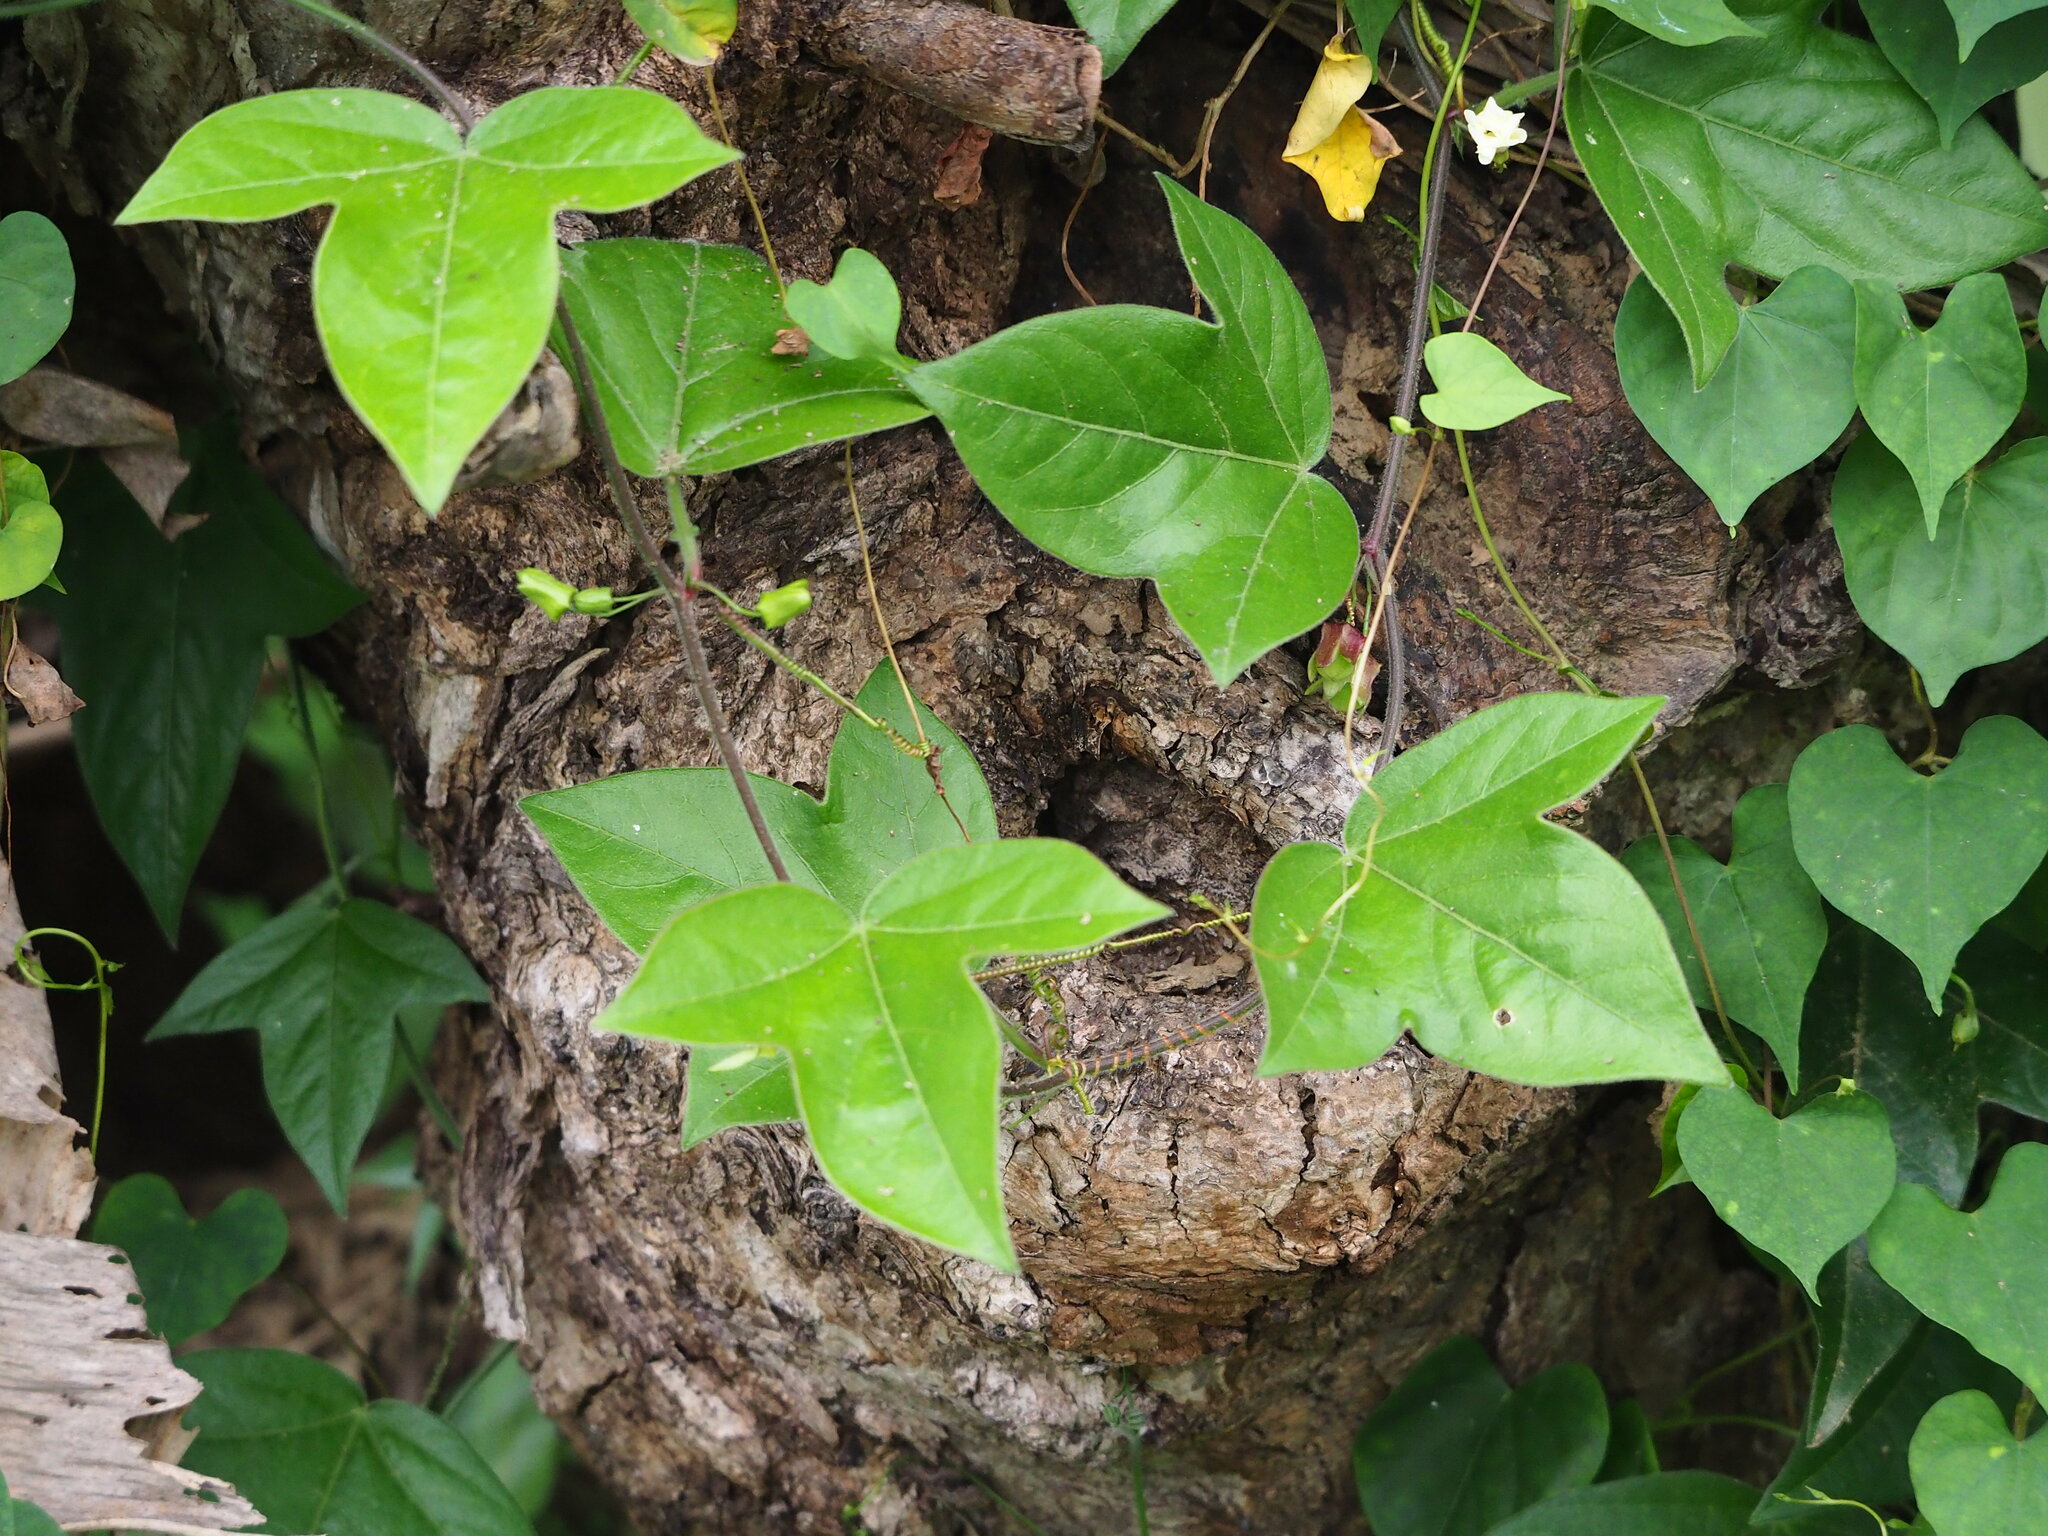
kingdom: Plantae
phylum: Tracheophyta
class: Magnoliopsida
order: Malpighiales
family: Passifloraceae
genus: Passiflora
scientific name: Passiflora suberosa
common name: Wild passionfruit
